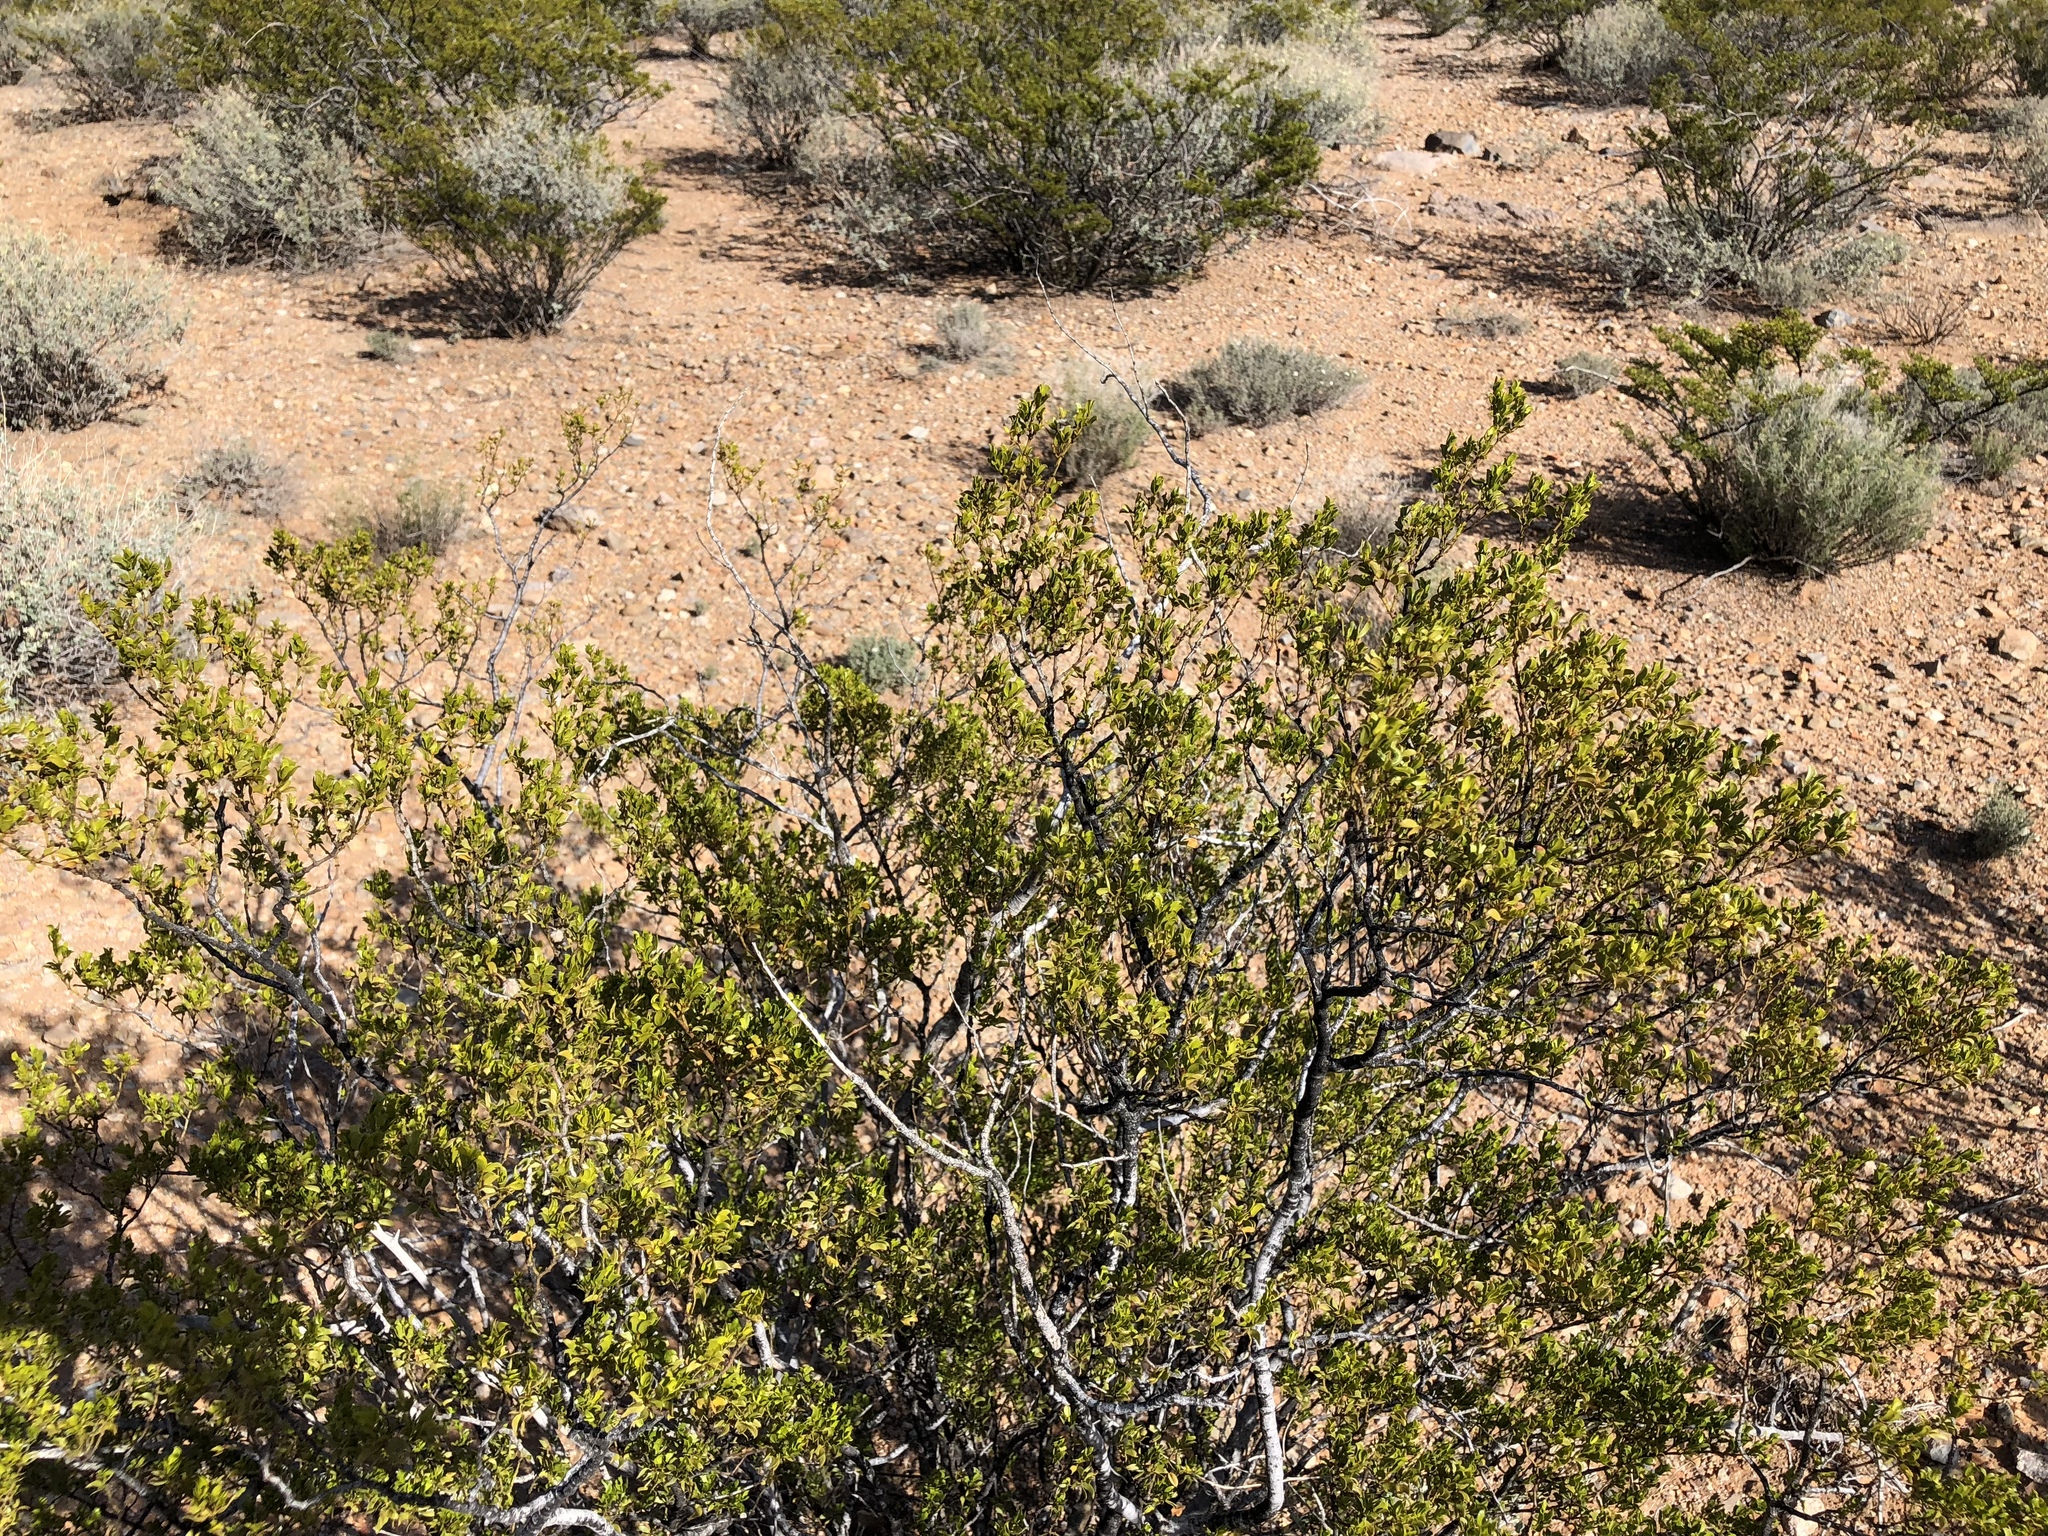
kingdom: Plantae
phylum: Tracheophyta
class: Magnoliopsida
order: Zygophyllales
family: Zygophyllaceae
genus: Larrea
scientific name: Larrea tridentata
